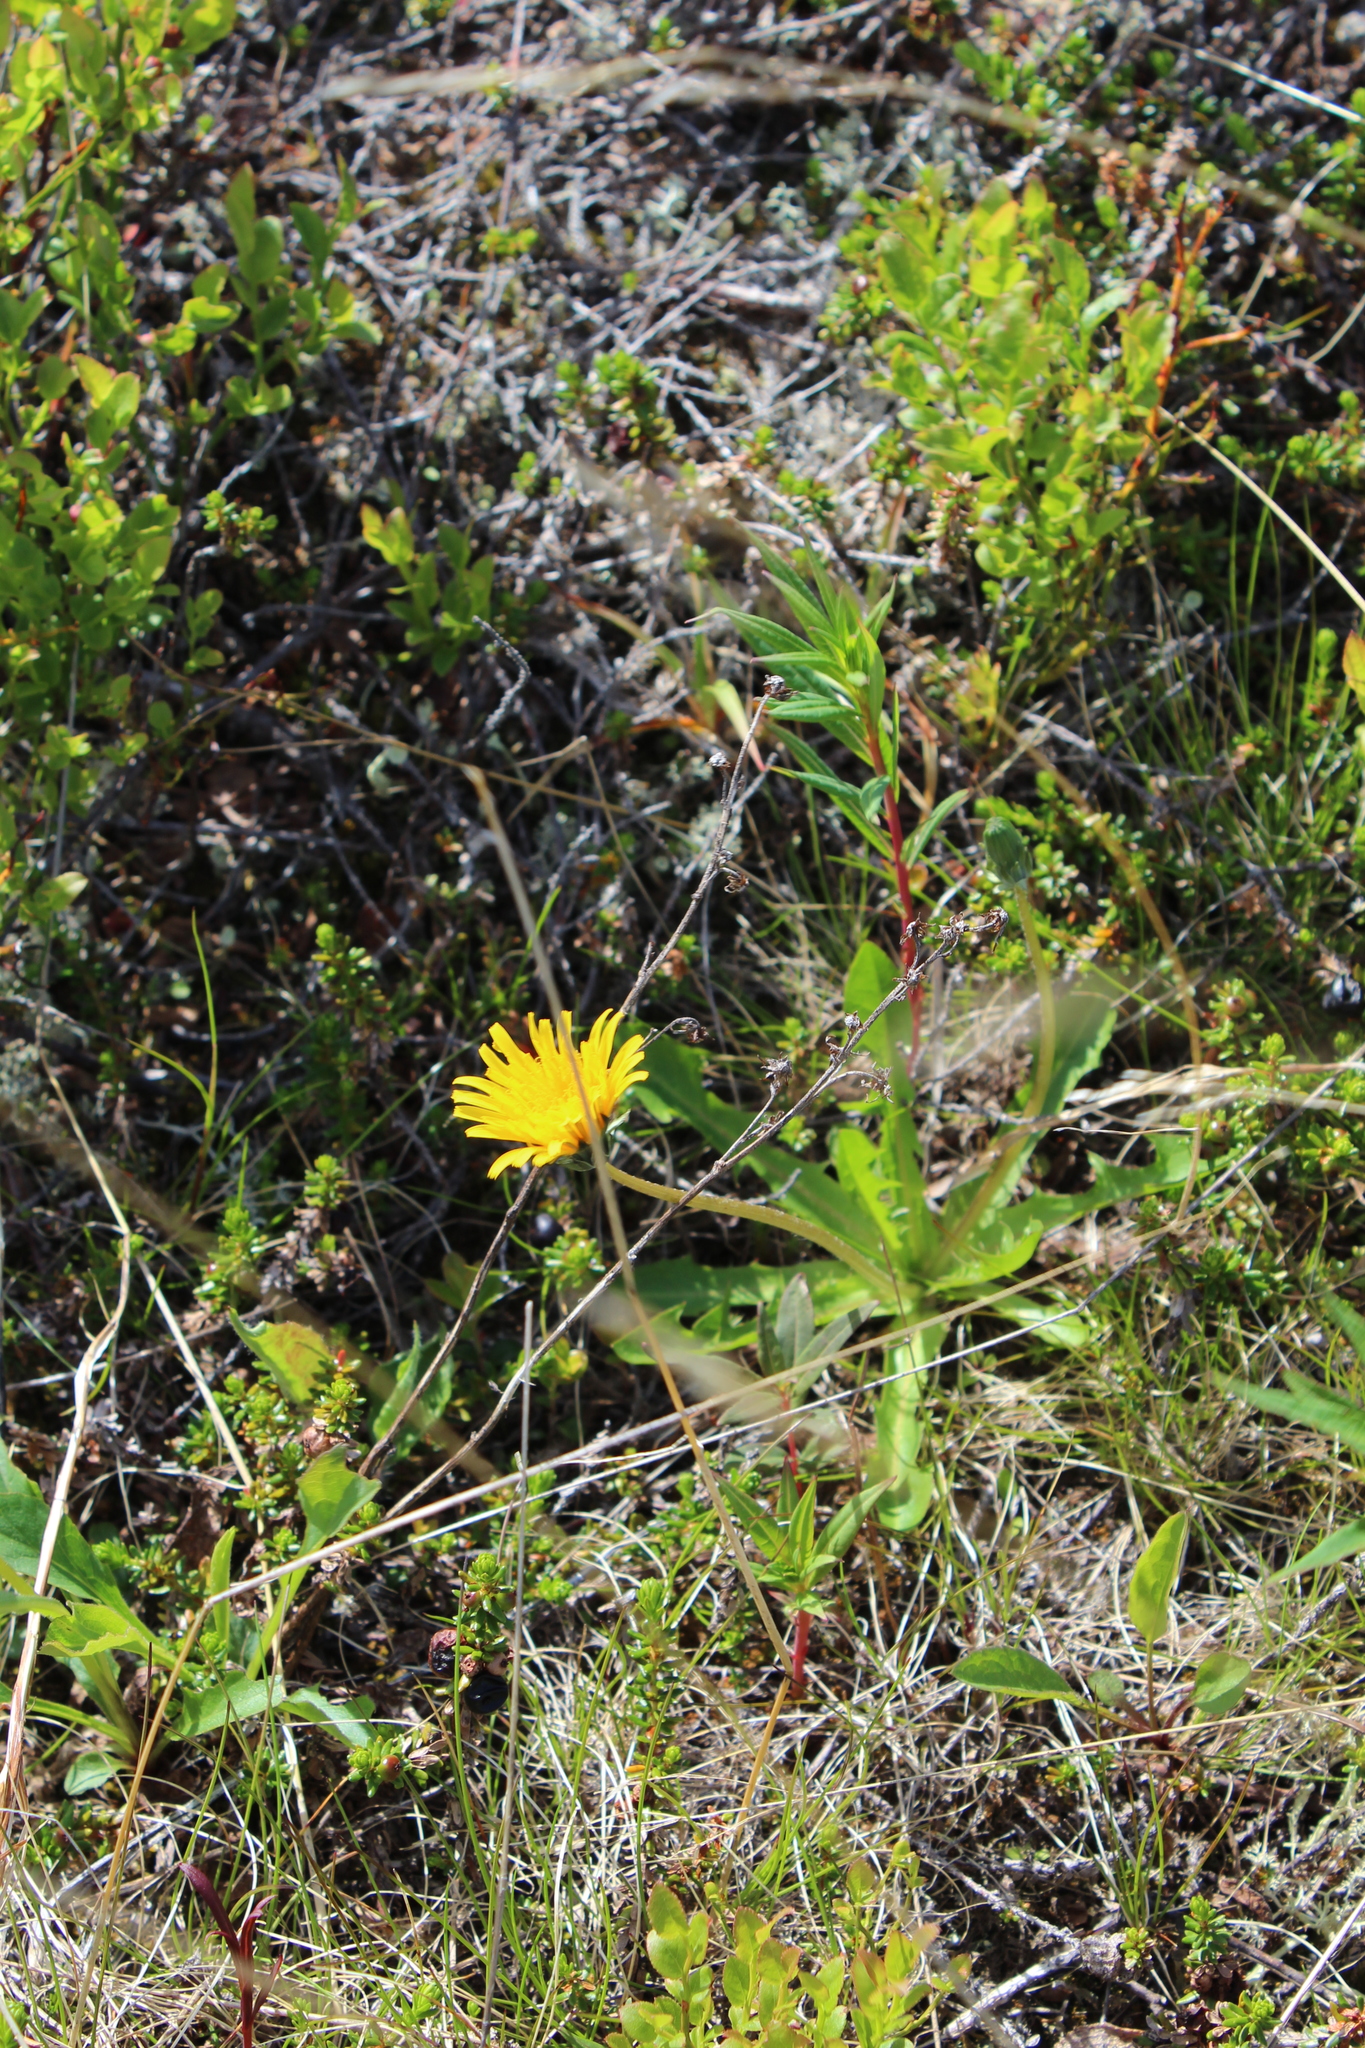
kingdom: Plantae
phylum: Tracheophyta
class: Magnoliopsida
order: Asterales
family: Asteraceae
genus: Taraxacum
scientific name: Taraxacum croceum
